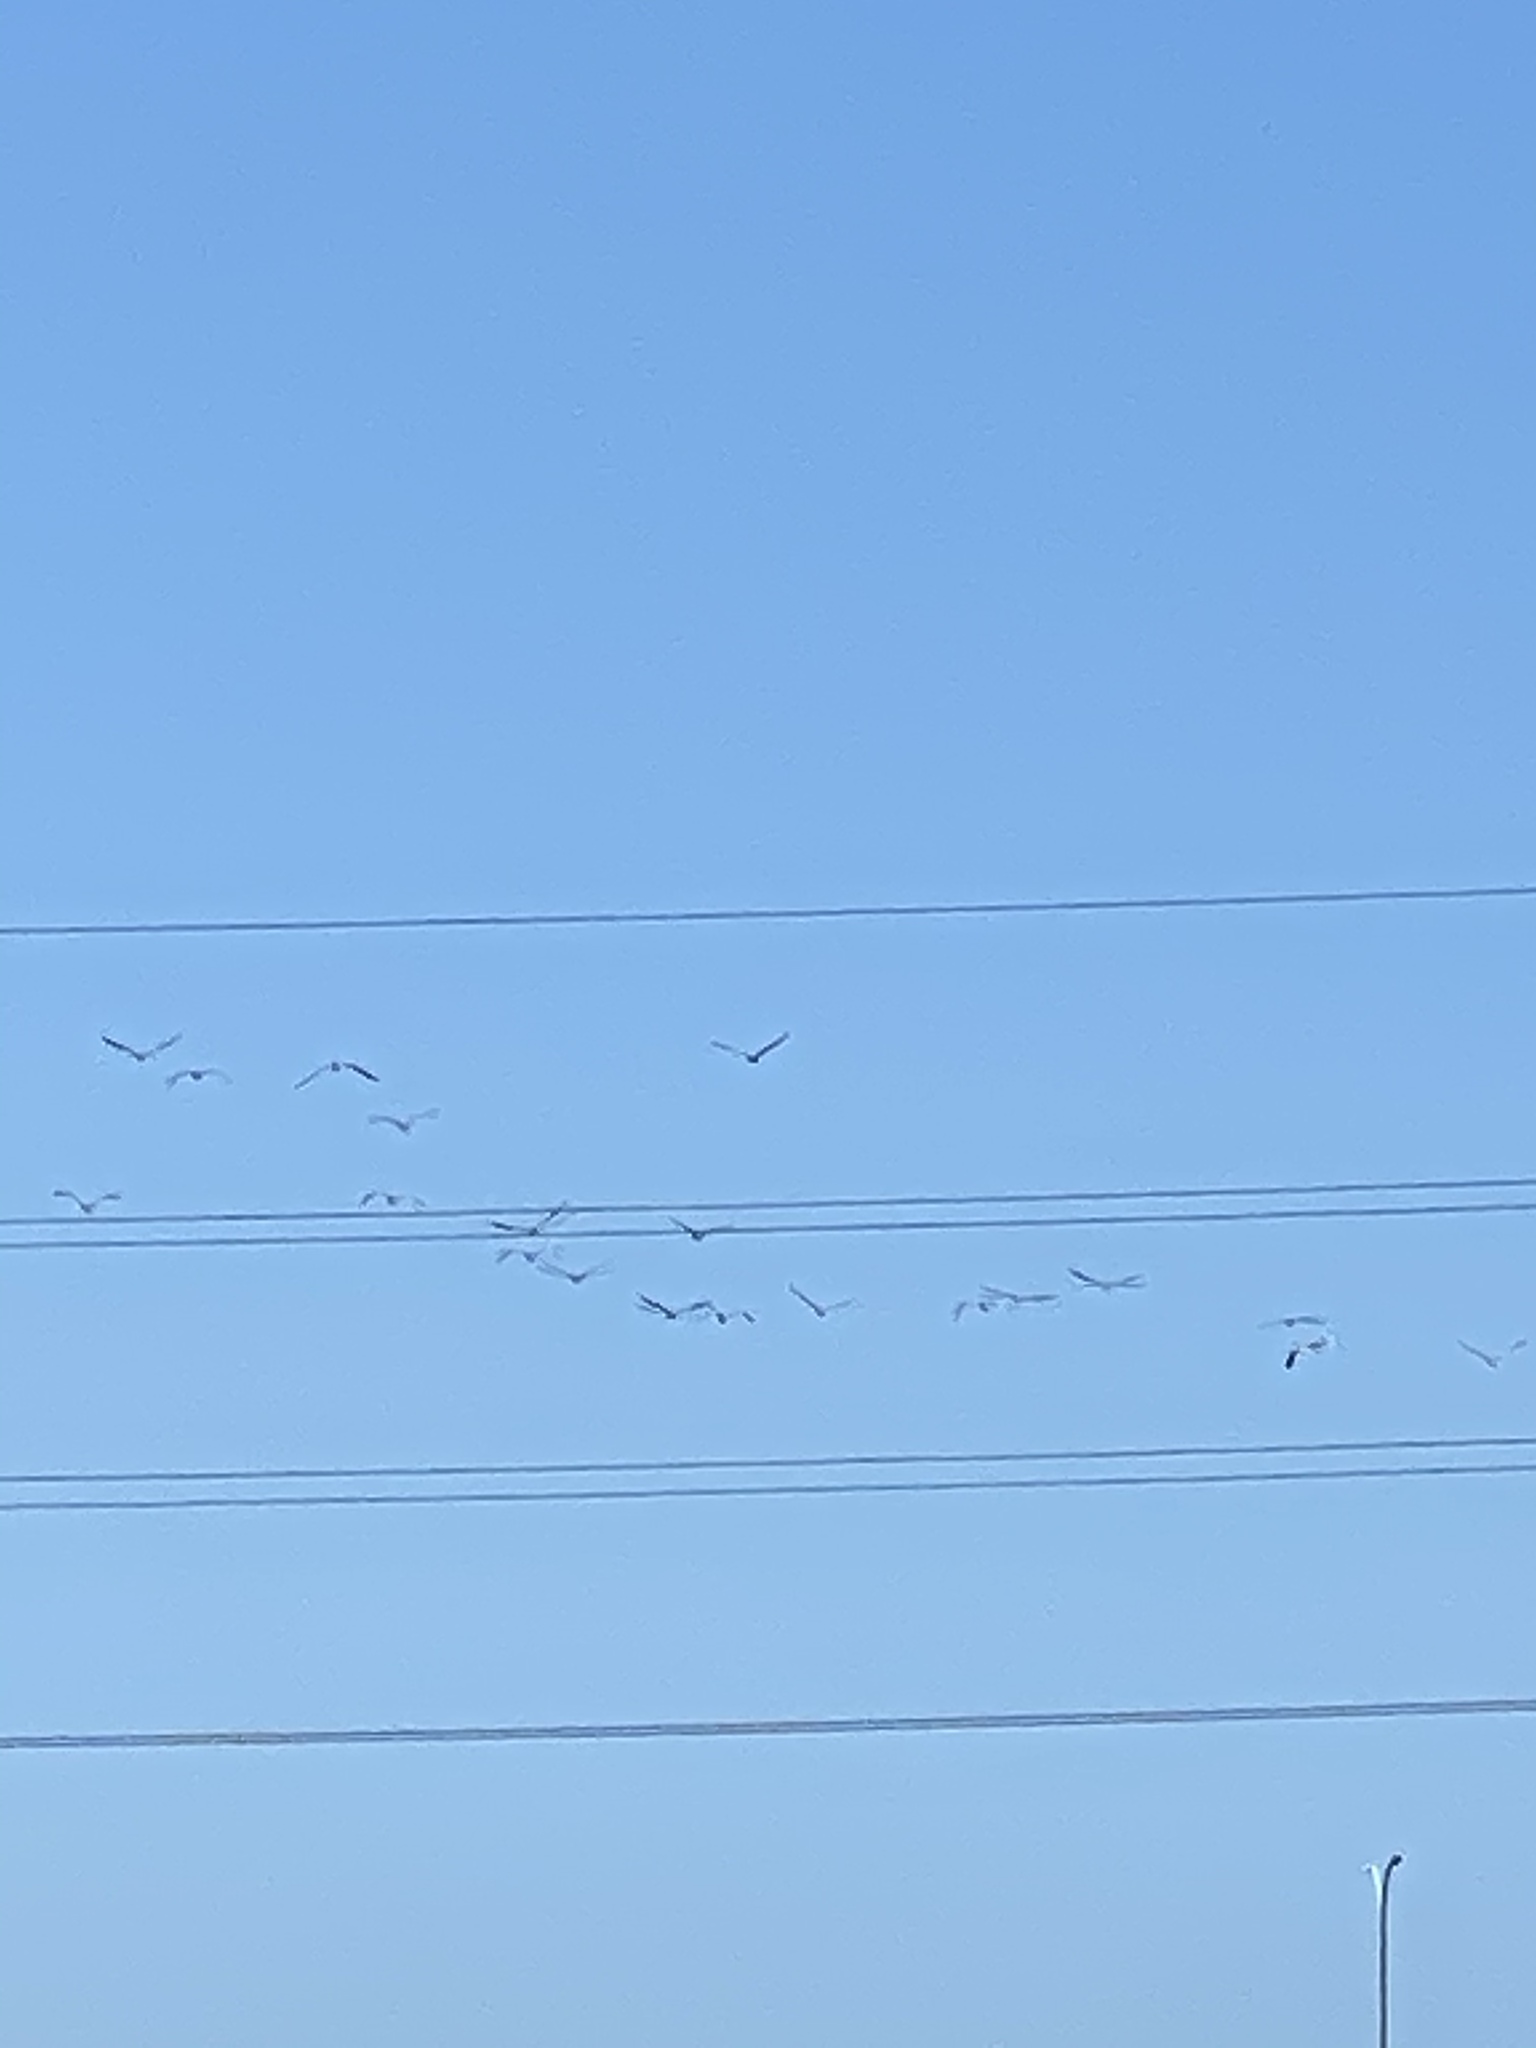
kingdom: Animalia
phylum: Chordata
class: Aves
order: Pelecaniformes
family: Pelecanidae
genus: Pelecanus
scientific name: Pelecanus occidentalis
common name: Brown pelican
